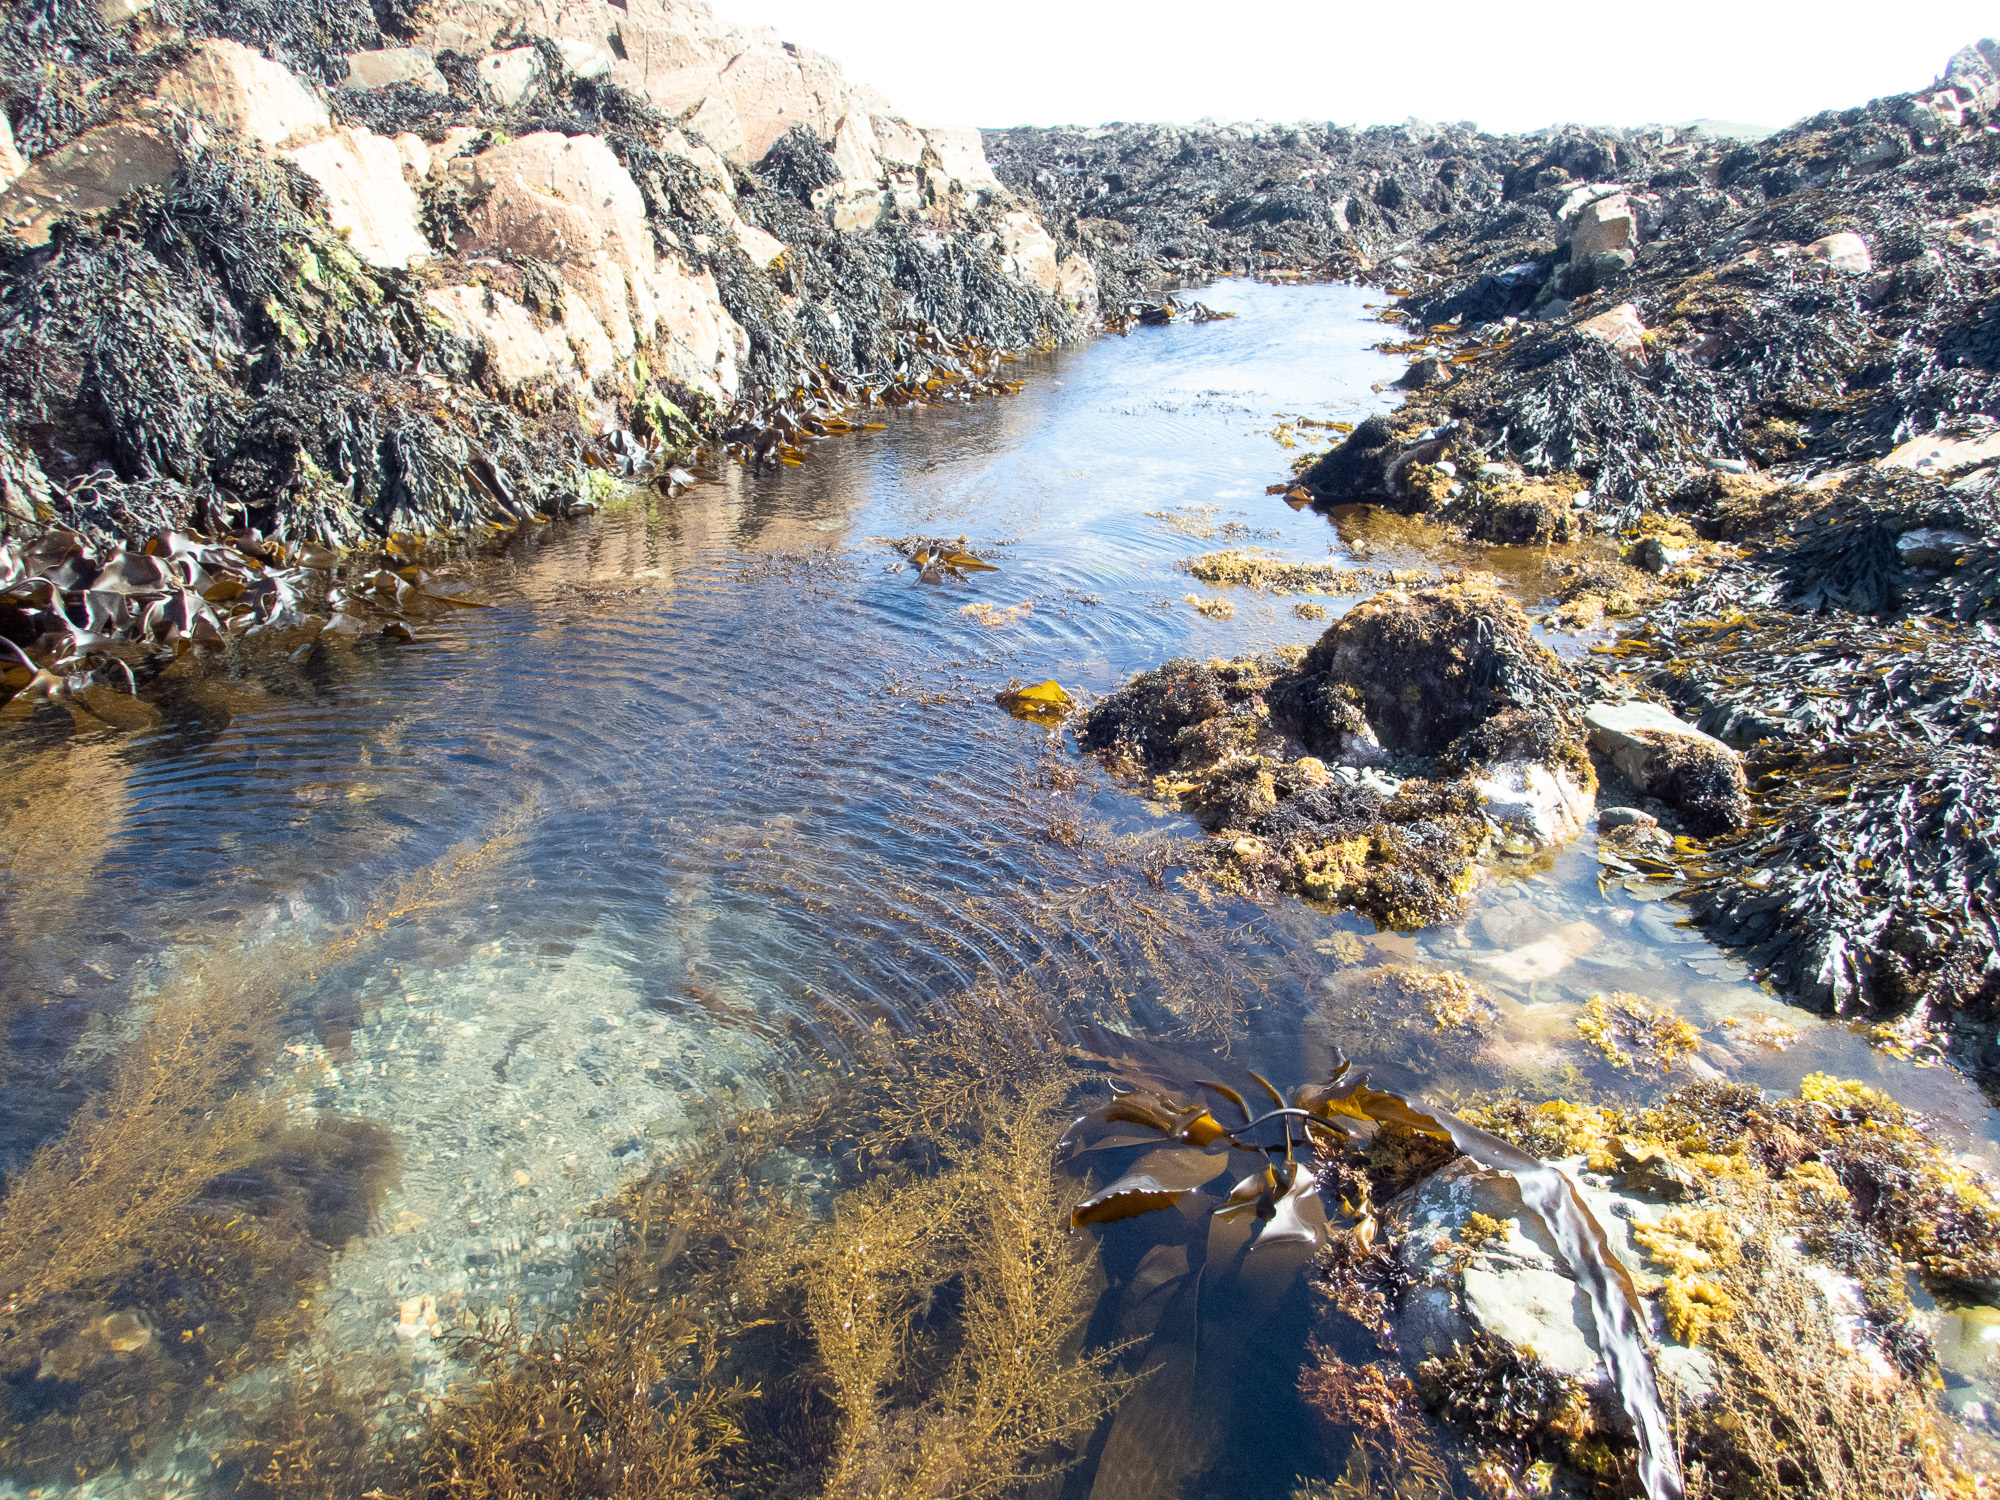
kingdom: Chromista
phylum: Ochrophyta
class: Phaeophyceae
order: Fucales
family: Sargassaceae
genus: Sargassum
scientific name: Sargassum muticum
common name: Japweed
